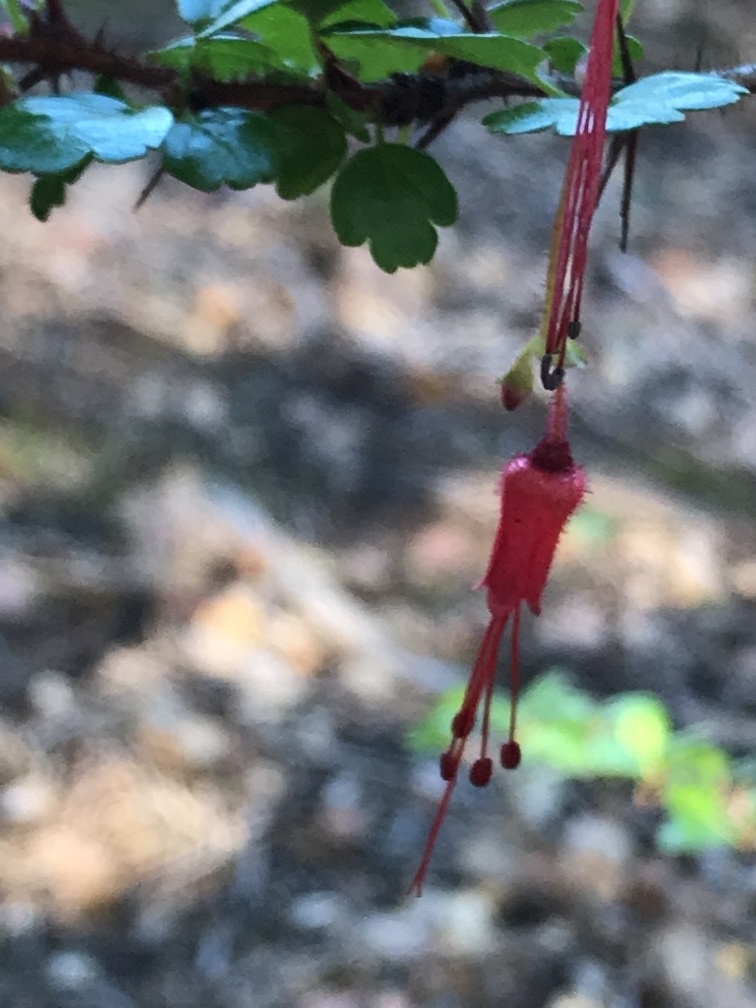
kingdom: Plantae
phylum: Tracheophyta
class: Magnoliopsida
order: Saxifragales
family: Grossulariaceae
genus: Ribes
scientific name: Ribes speciosum
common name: Fuchsia-flower gooseberry
